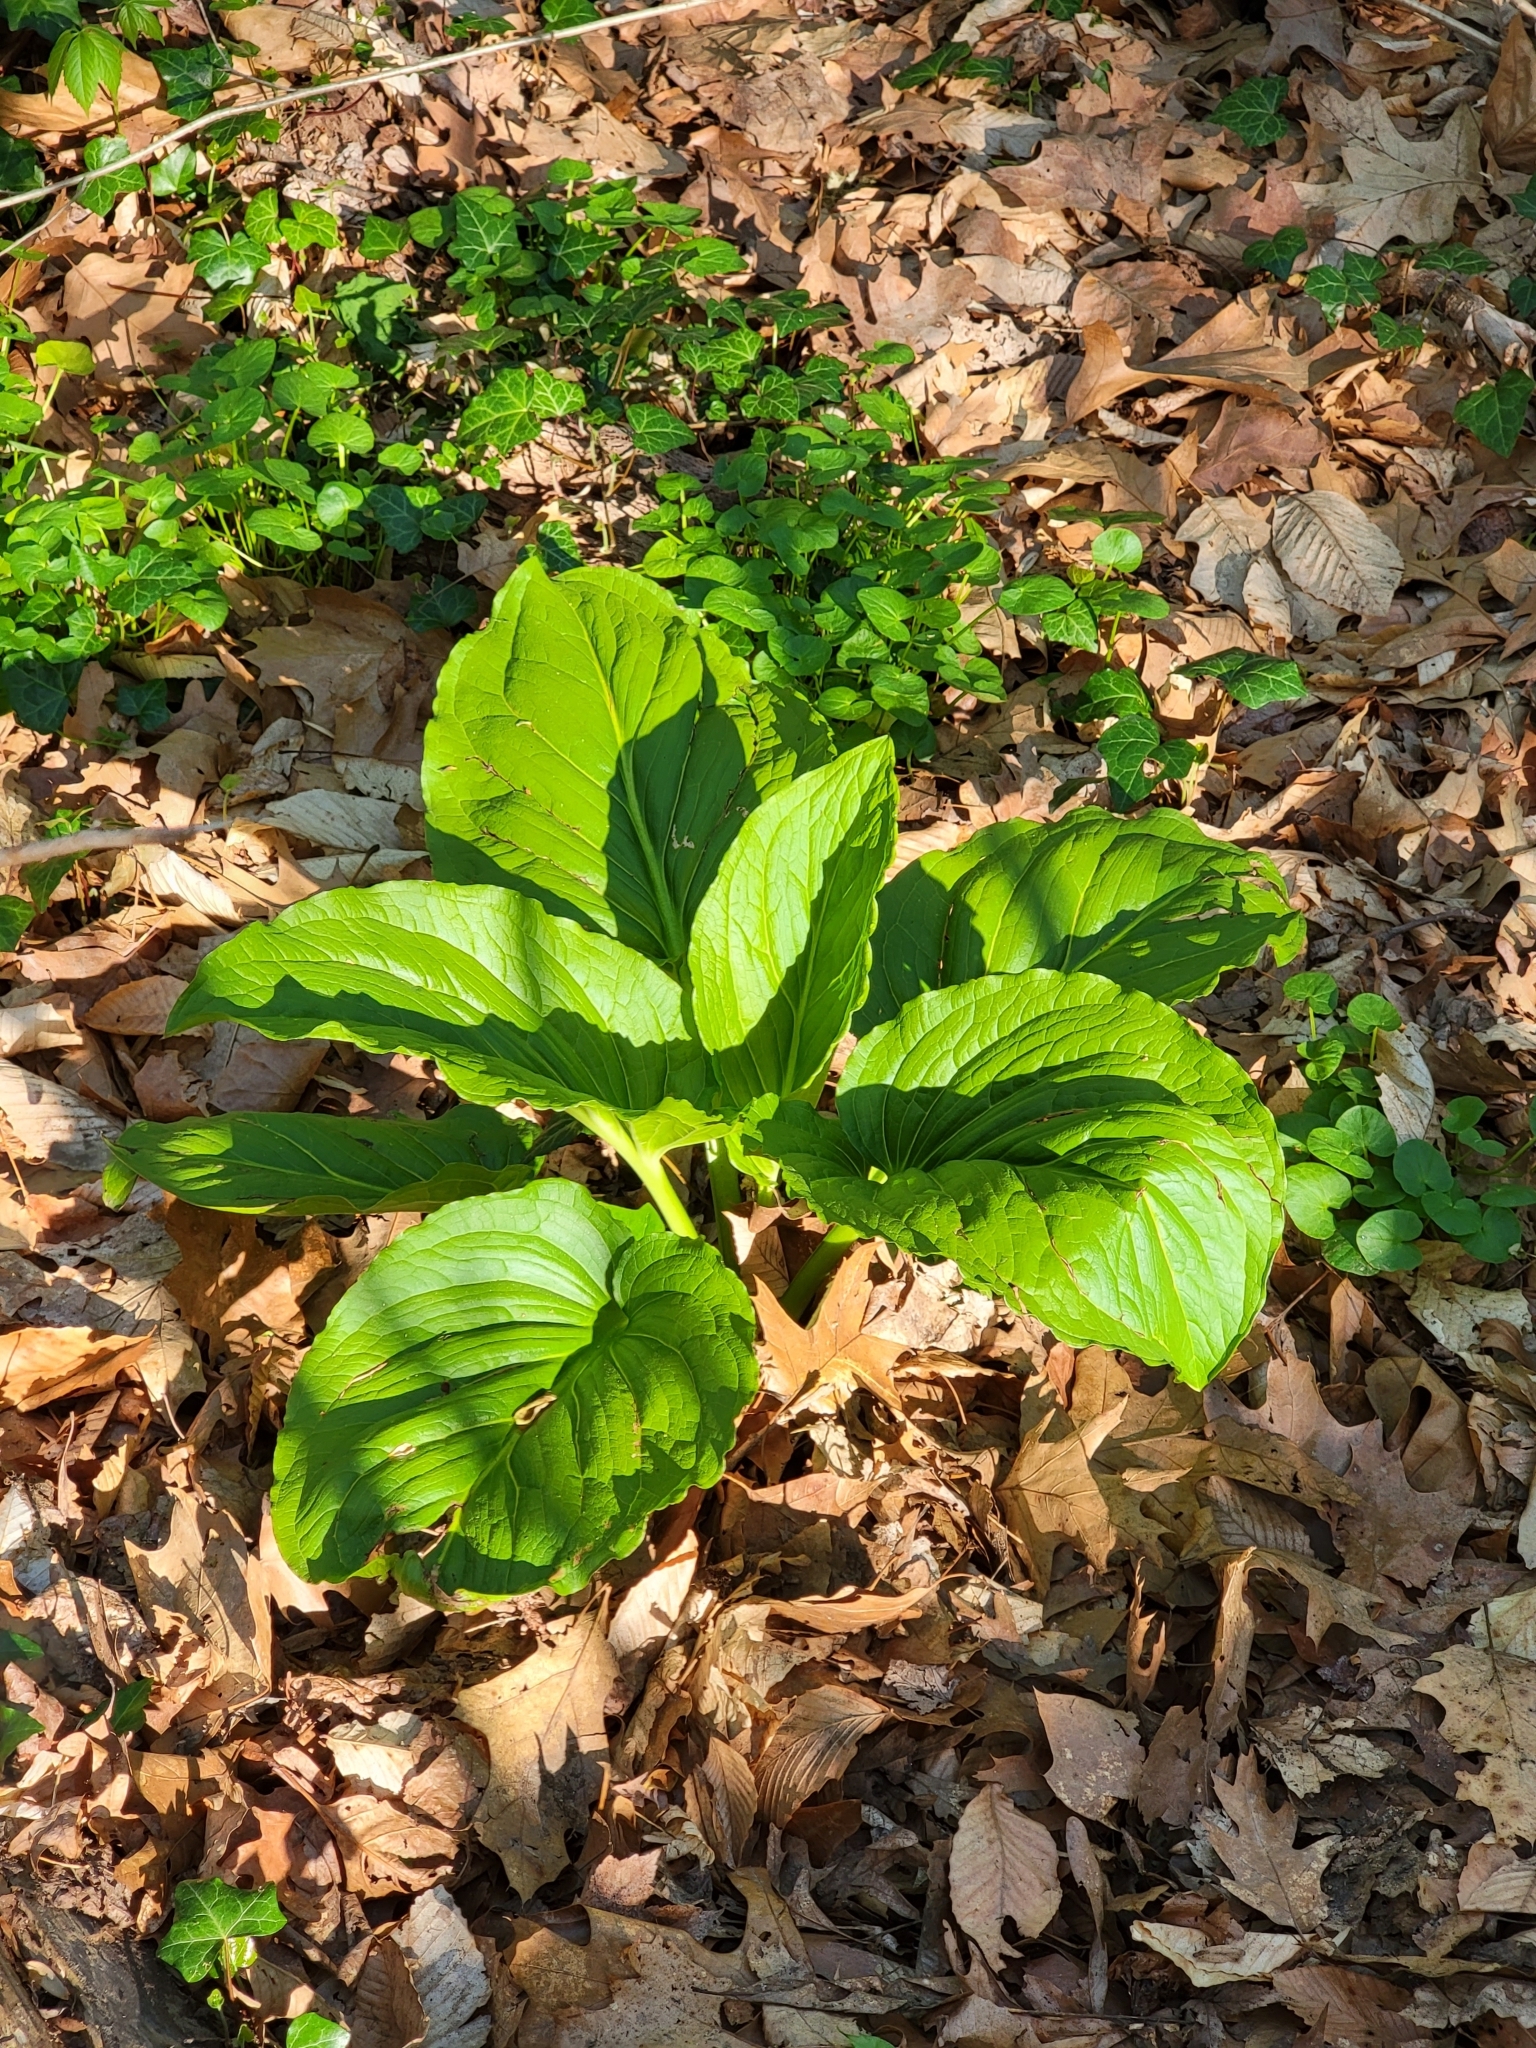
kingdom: Plantae
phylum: Tracheophyta
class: Liliopsida
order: Alismatales
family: Araceae
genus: Symplocarpus
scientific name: Symplocarpus foetidus
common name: Eastern skunk cabbage
